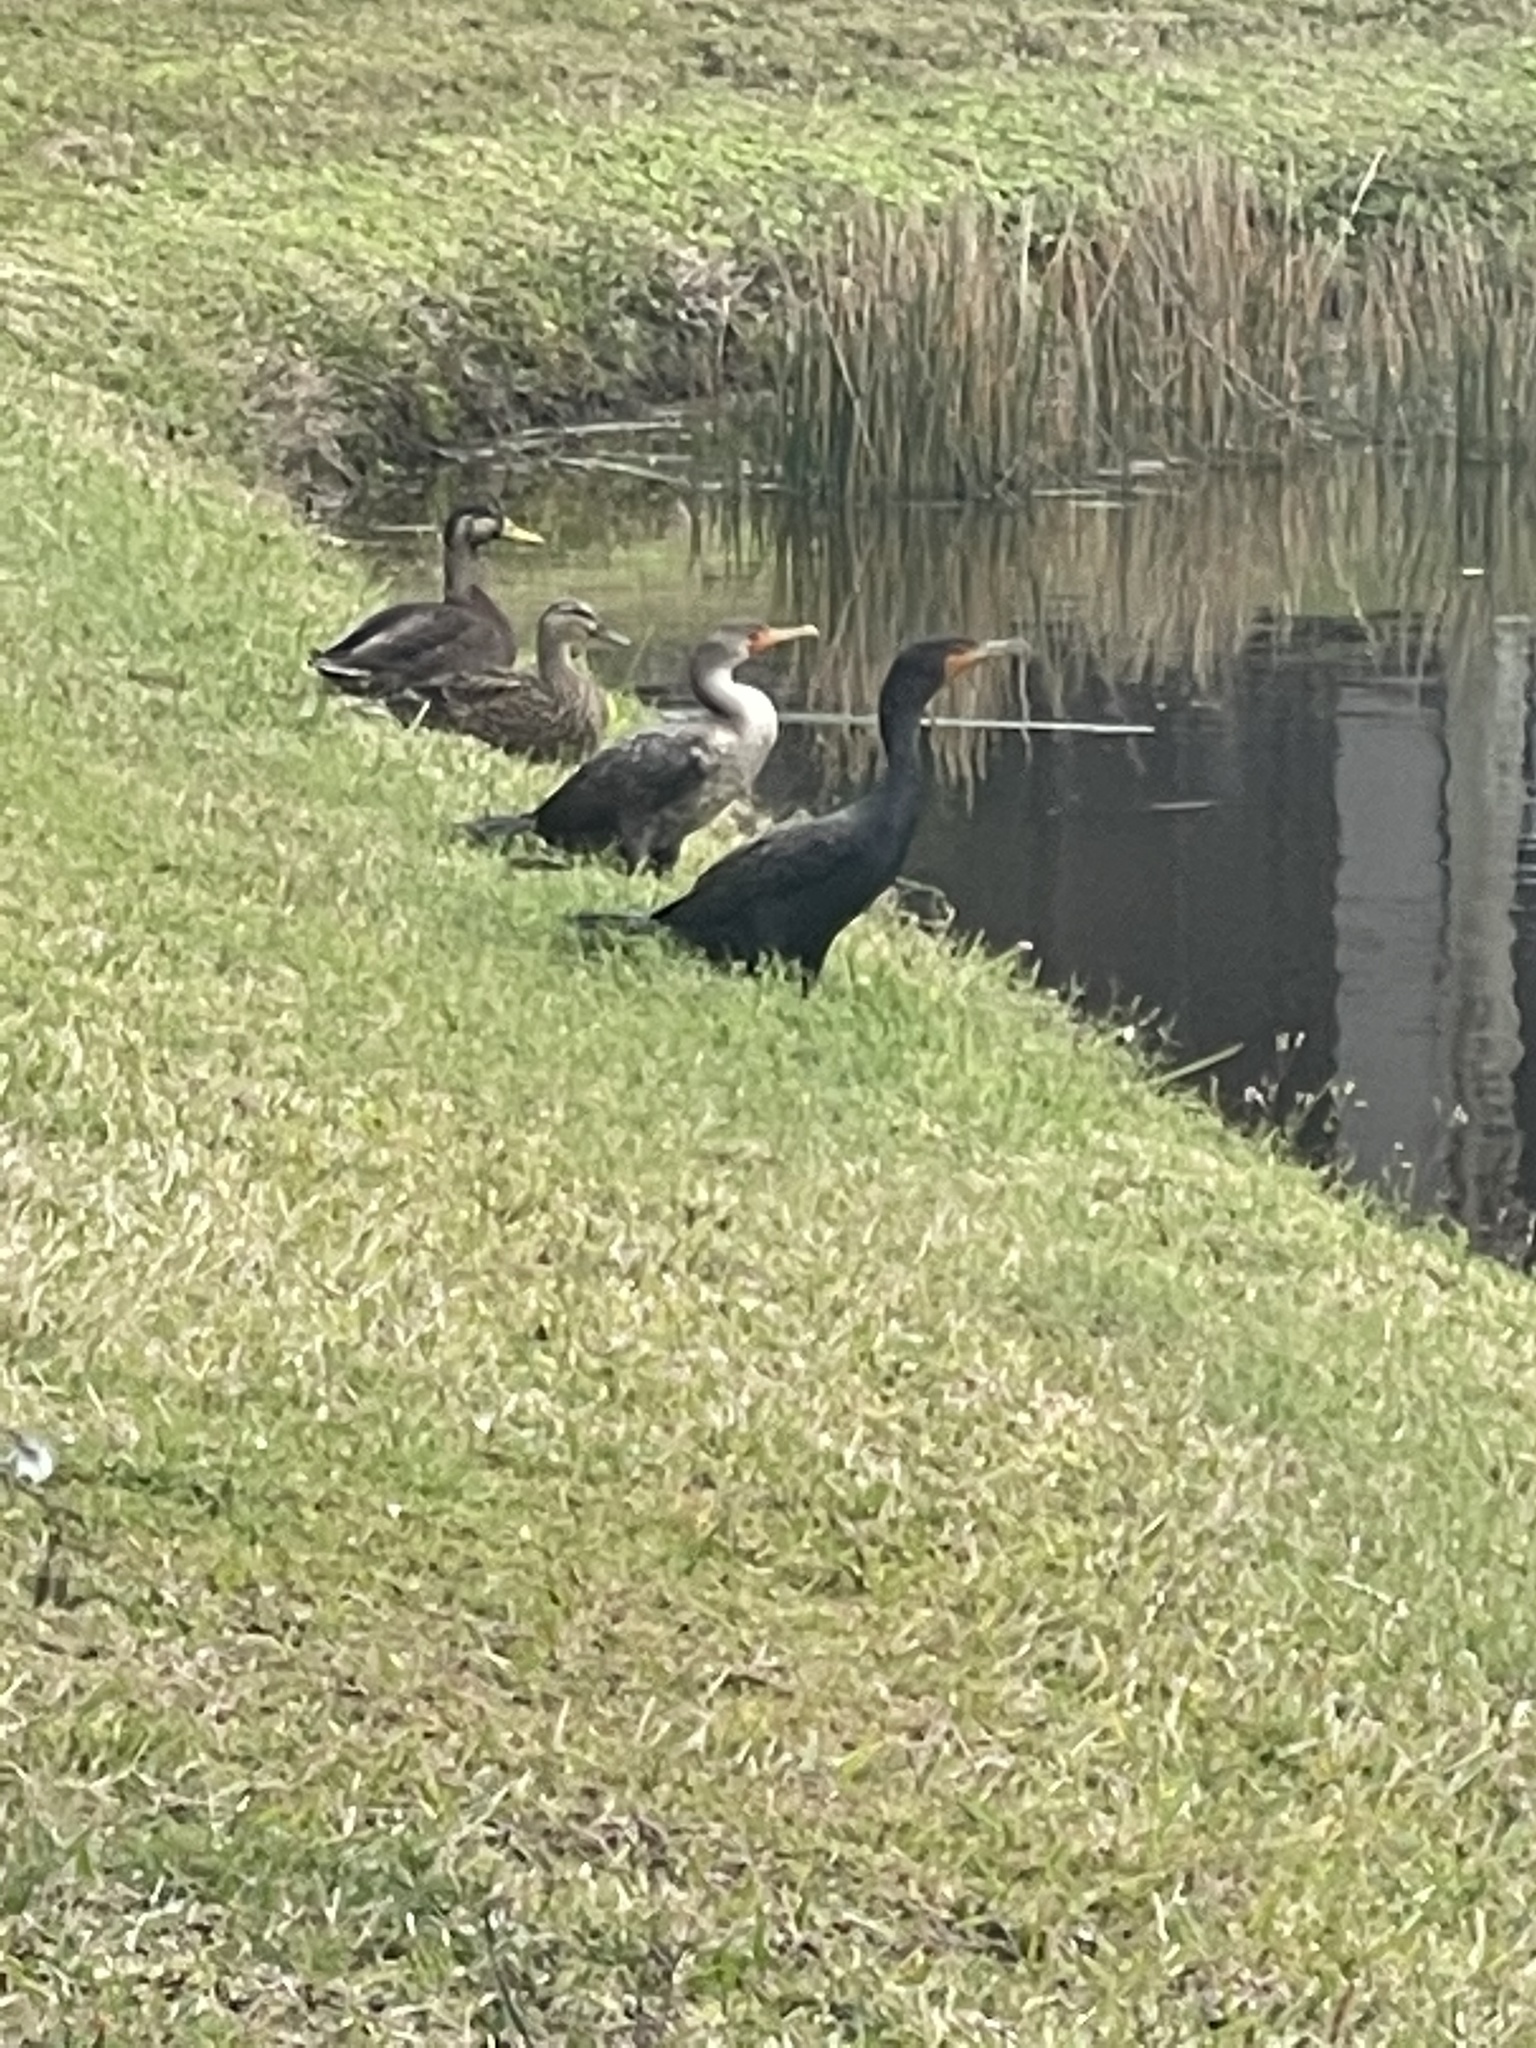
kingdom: Animalia
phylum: Chordata
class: Aves
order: Suliformes
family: Phalacrocoracidae
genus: Phalacrocorax
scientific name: Phalacrocorax auritus
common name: Double-crested cormorant
